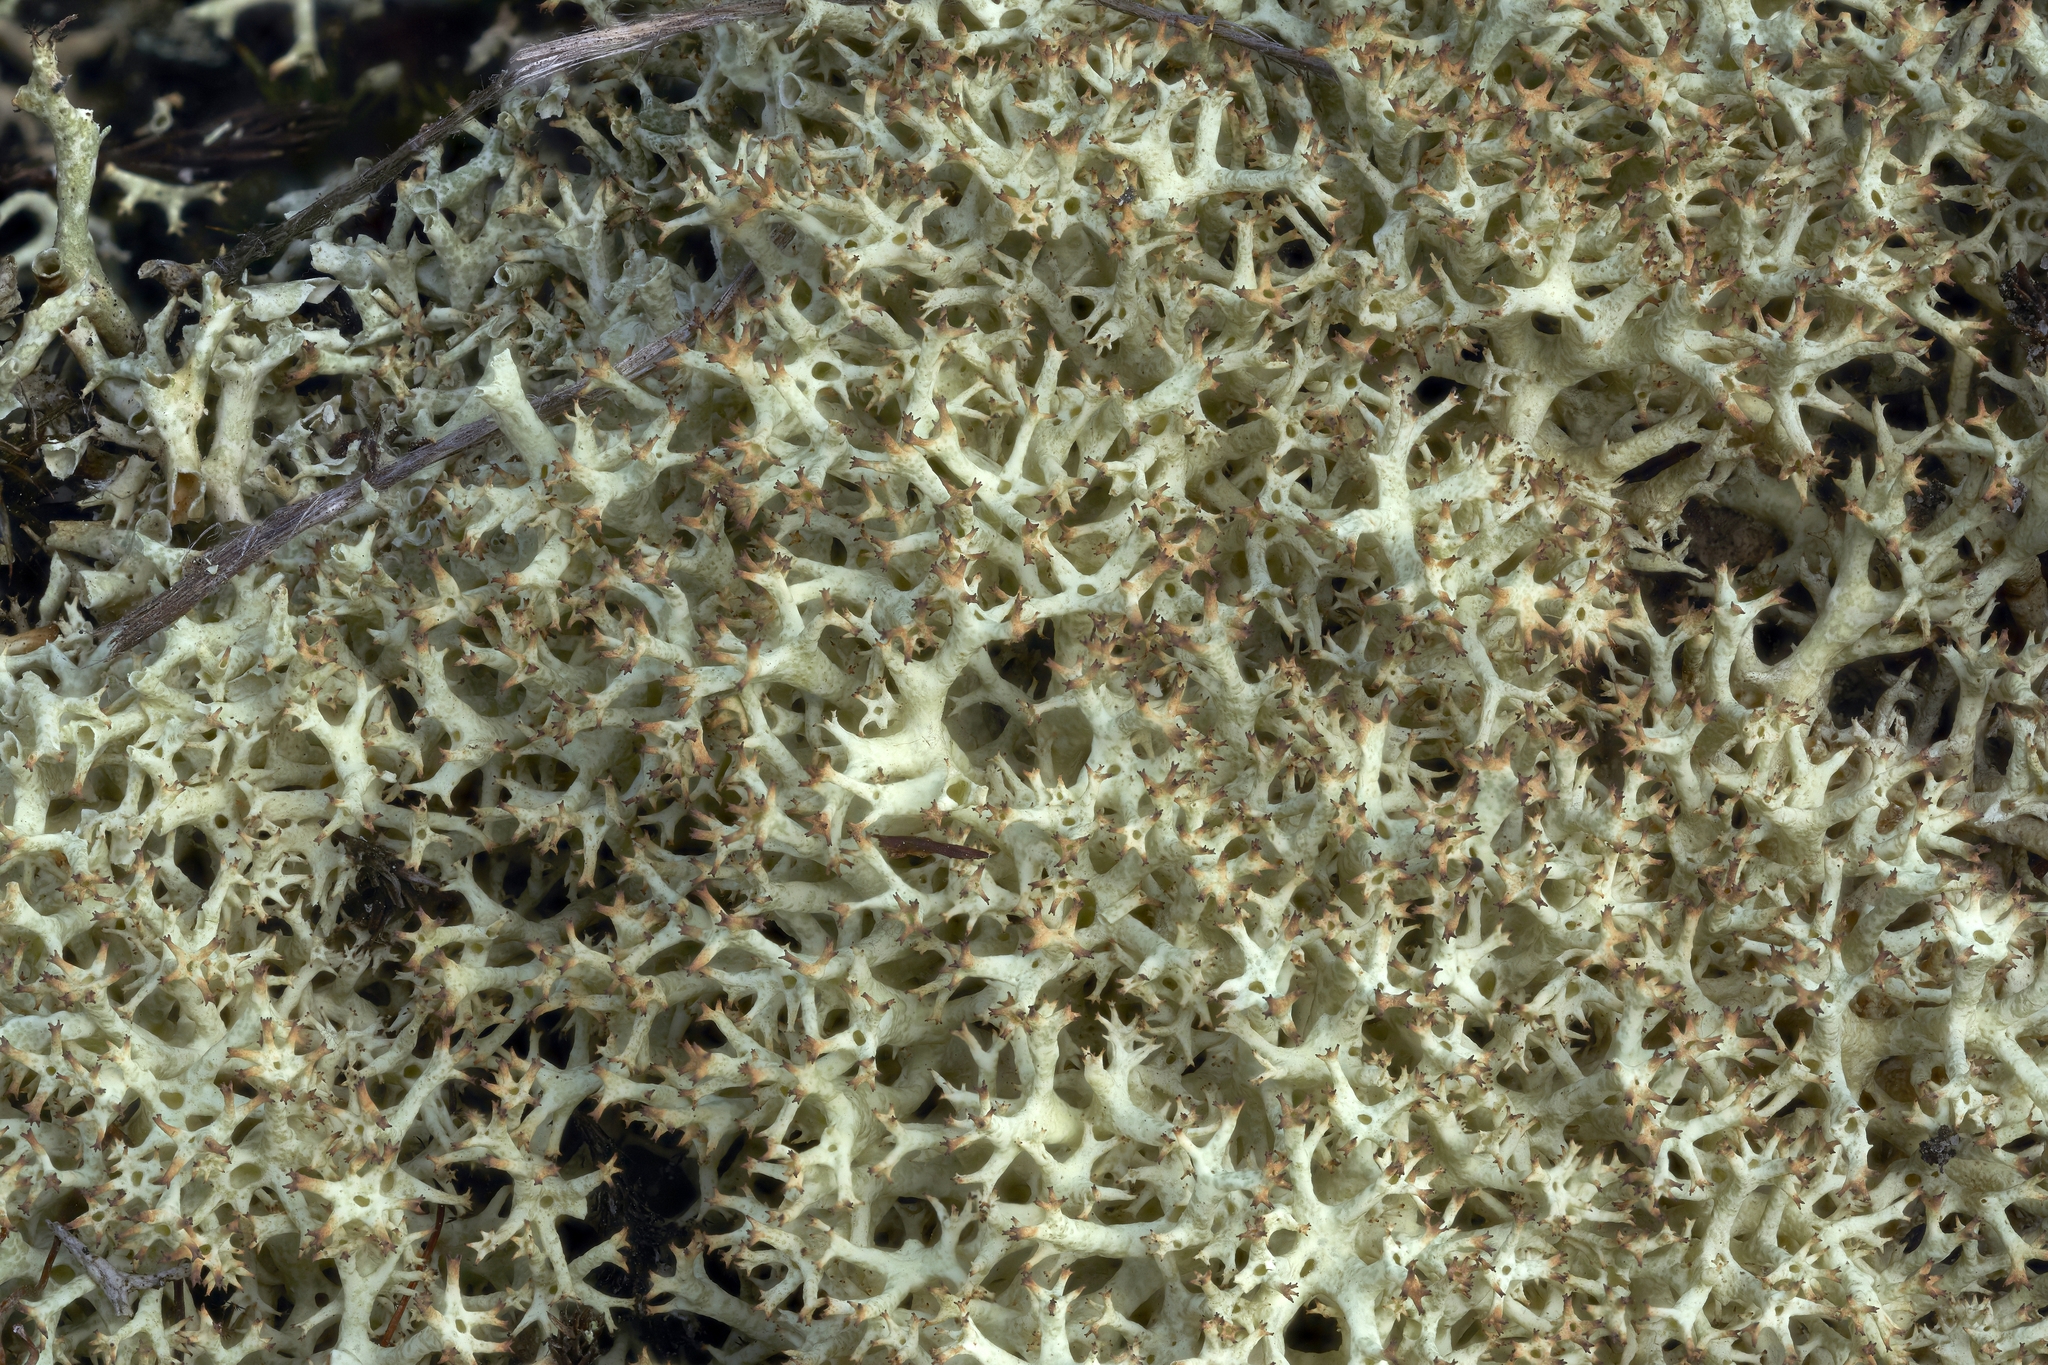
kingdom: Fungi
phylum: Ascomycota
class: Lecanoromycetes
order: Lecanorales
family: Cladoniaceae
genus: Cladonia
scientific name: Cladonia uncialis
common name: Thorn lichen
